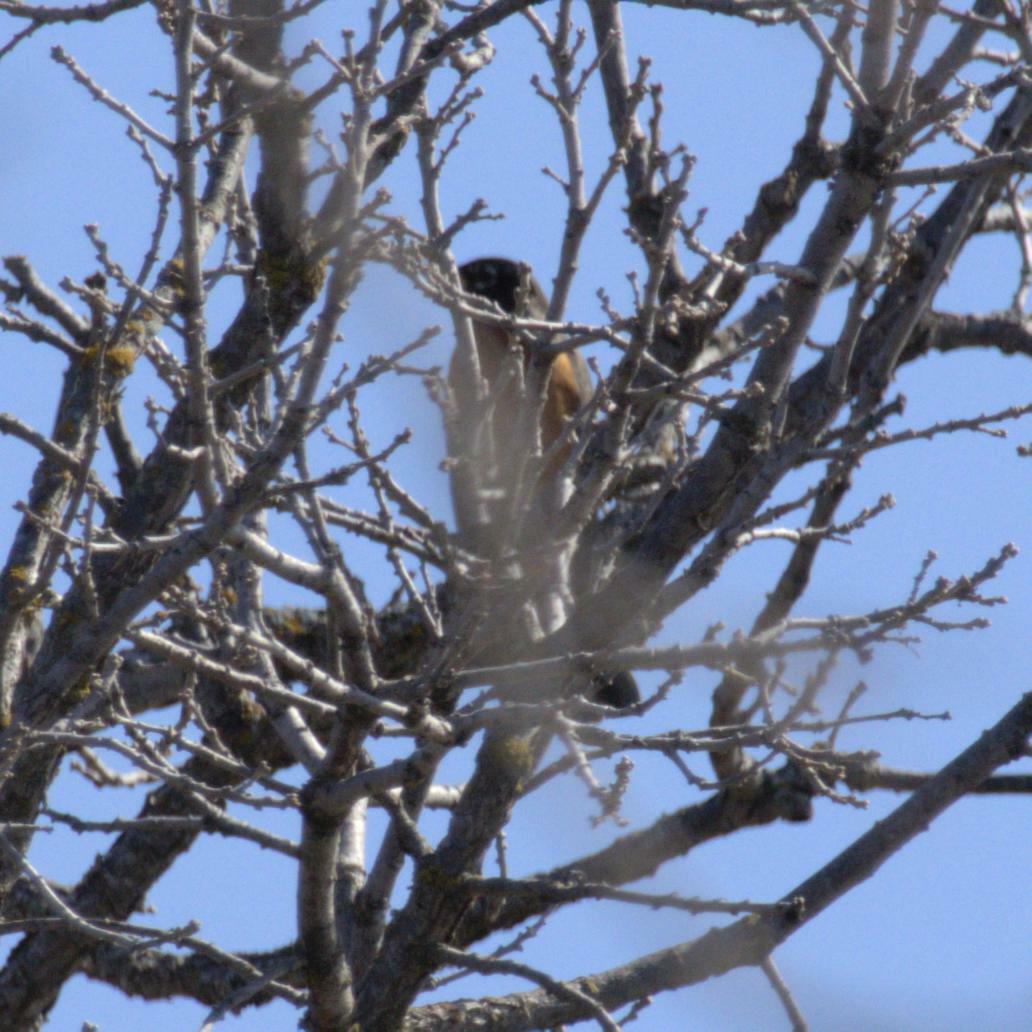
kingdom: Animalia
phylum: Chordata
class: Aves
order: Passeriformes
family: Turdidae
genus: Turdus
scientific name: Turdus migratorius
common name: American robin
